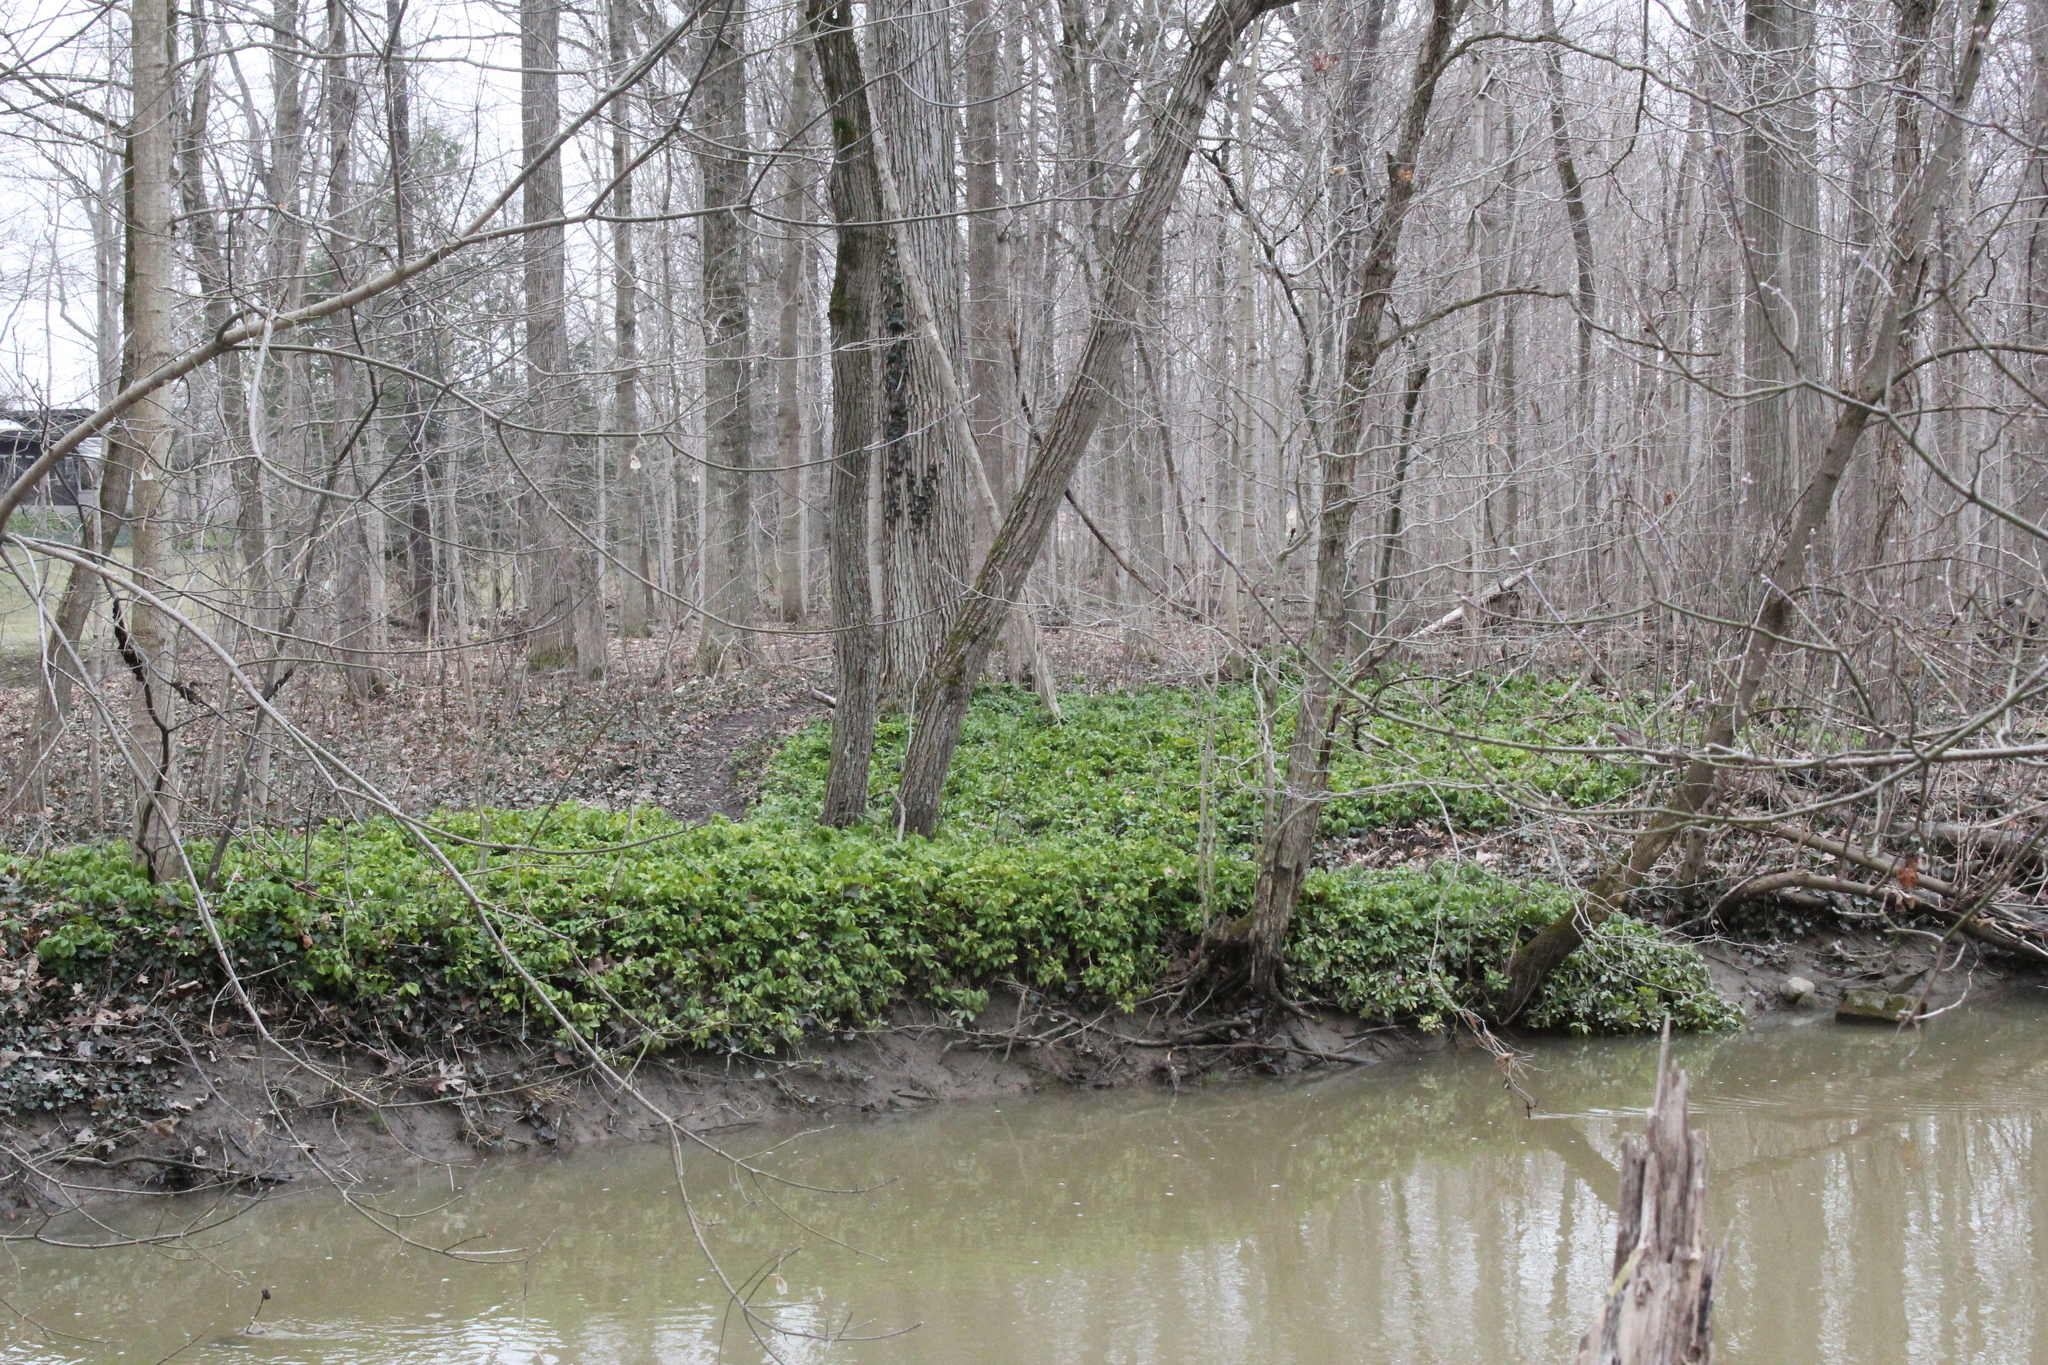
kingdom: Plantae
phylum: Tracheophyta
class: Magnoliopsida
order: Buxales
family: Buxaceae
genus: Pachysandra
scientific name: Pachysandra terminalis
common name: Japanese pachysandra
